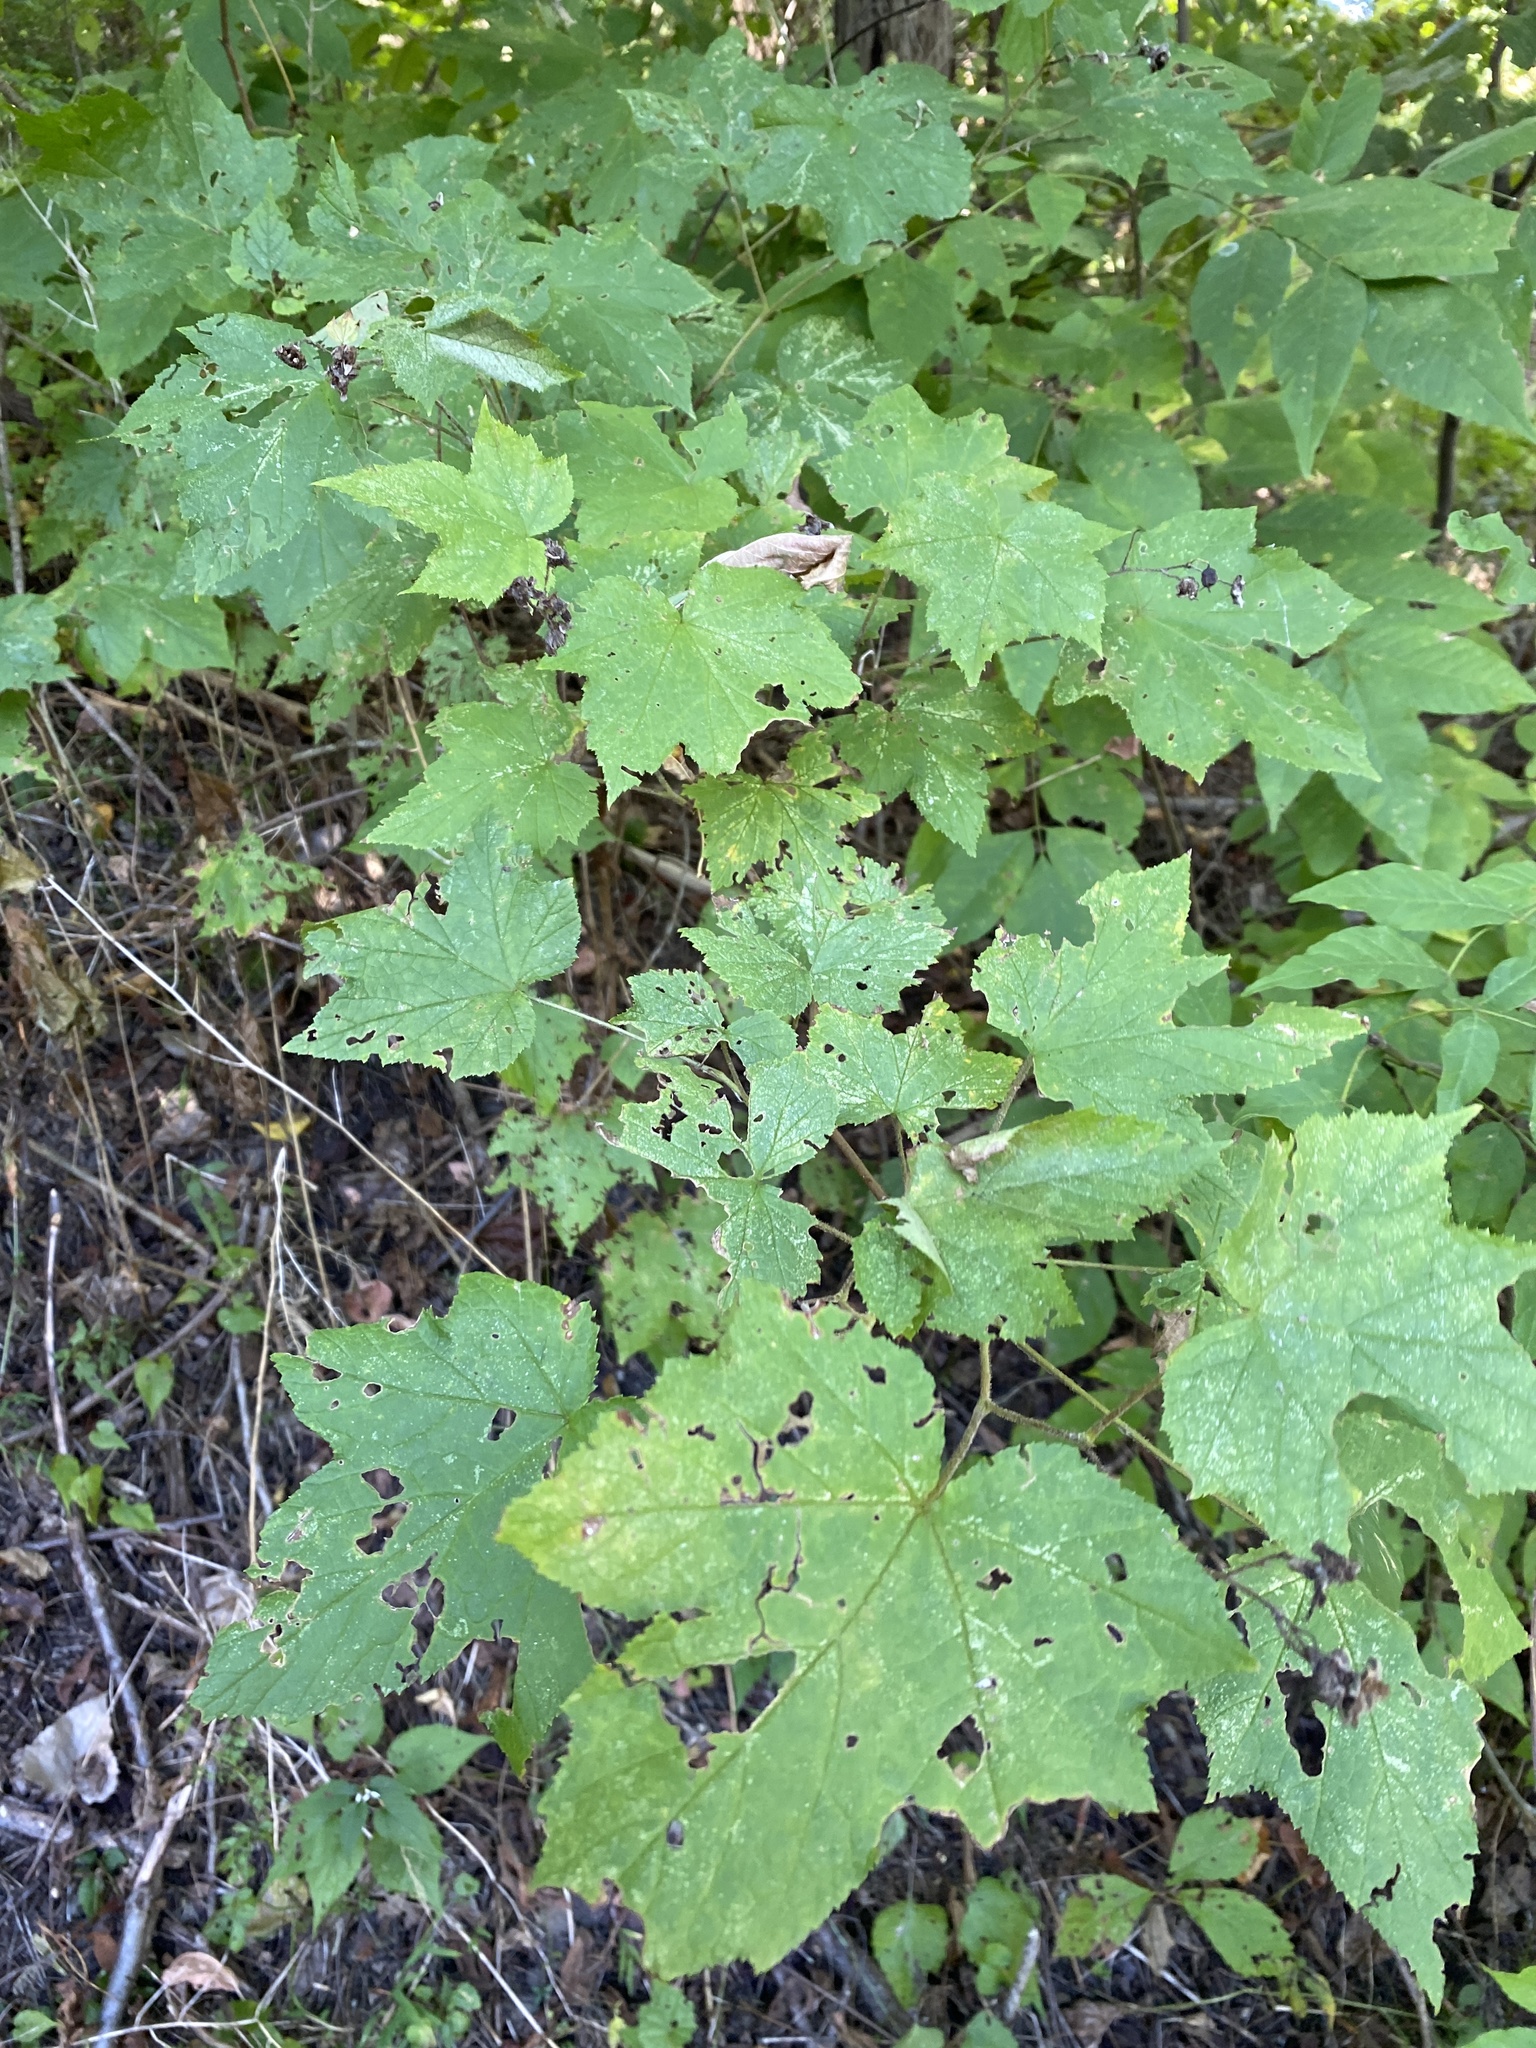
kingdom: Plantae
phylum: Tracheophyta
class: Magnoliopsida
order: Rosales
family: Rosaceae
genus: Rubus
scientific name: Rubus odoratus
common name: Purple-flowered raspberry
